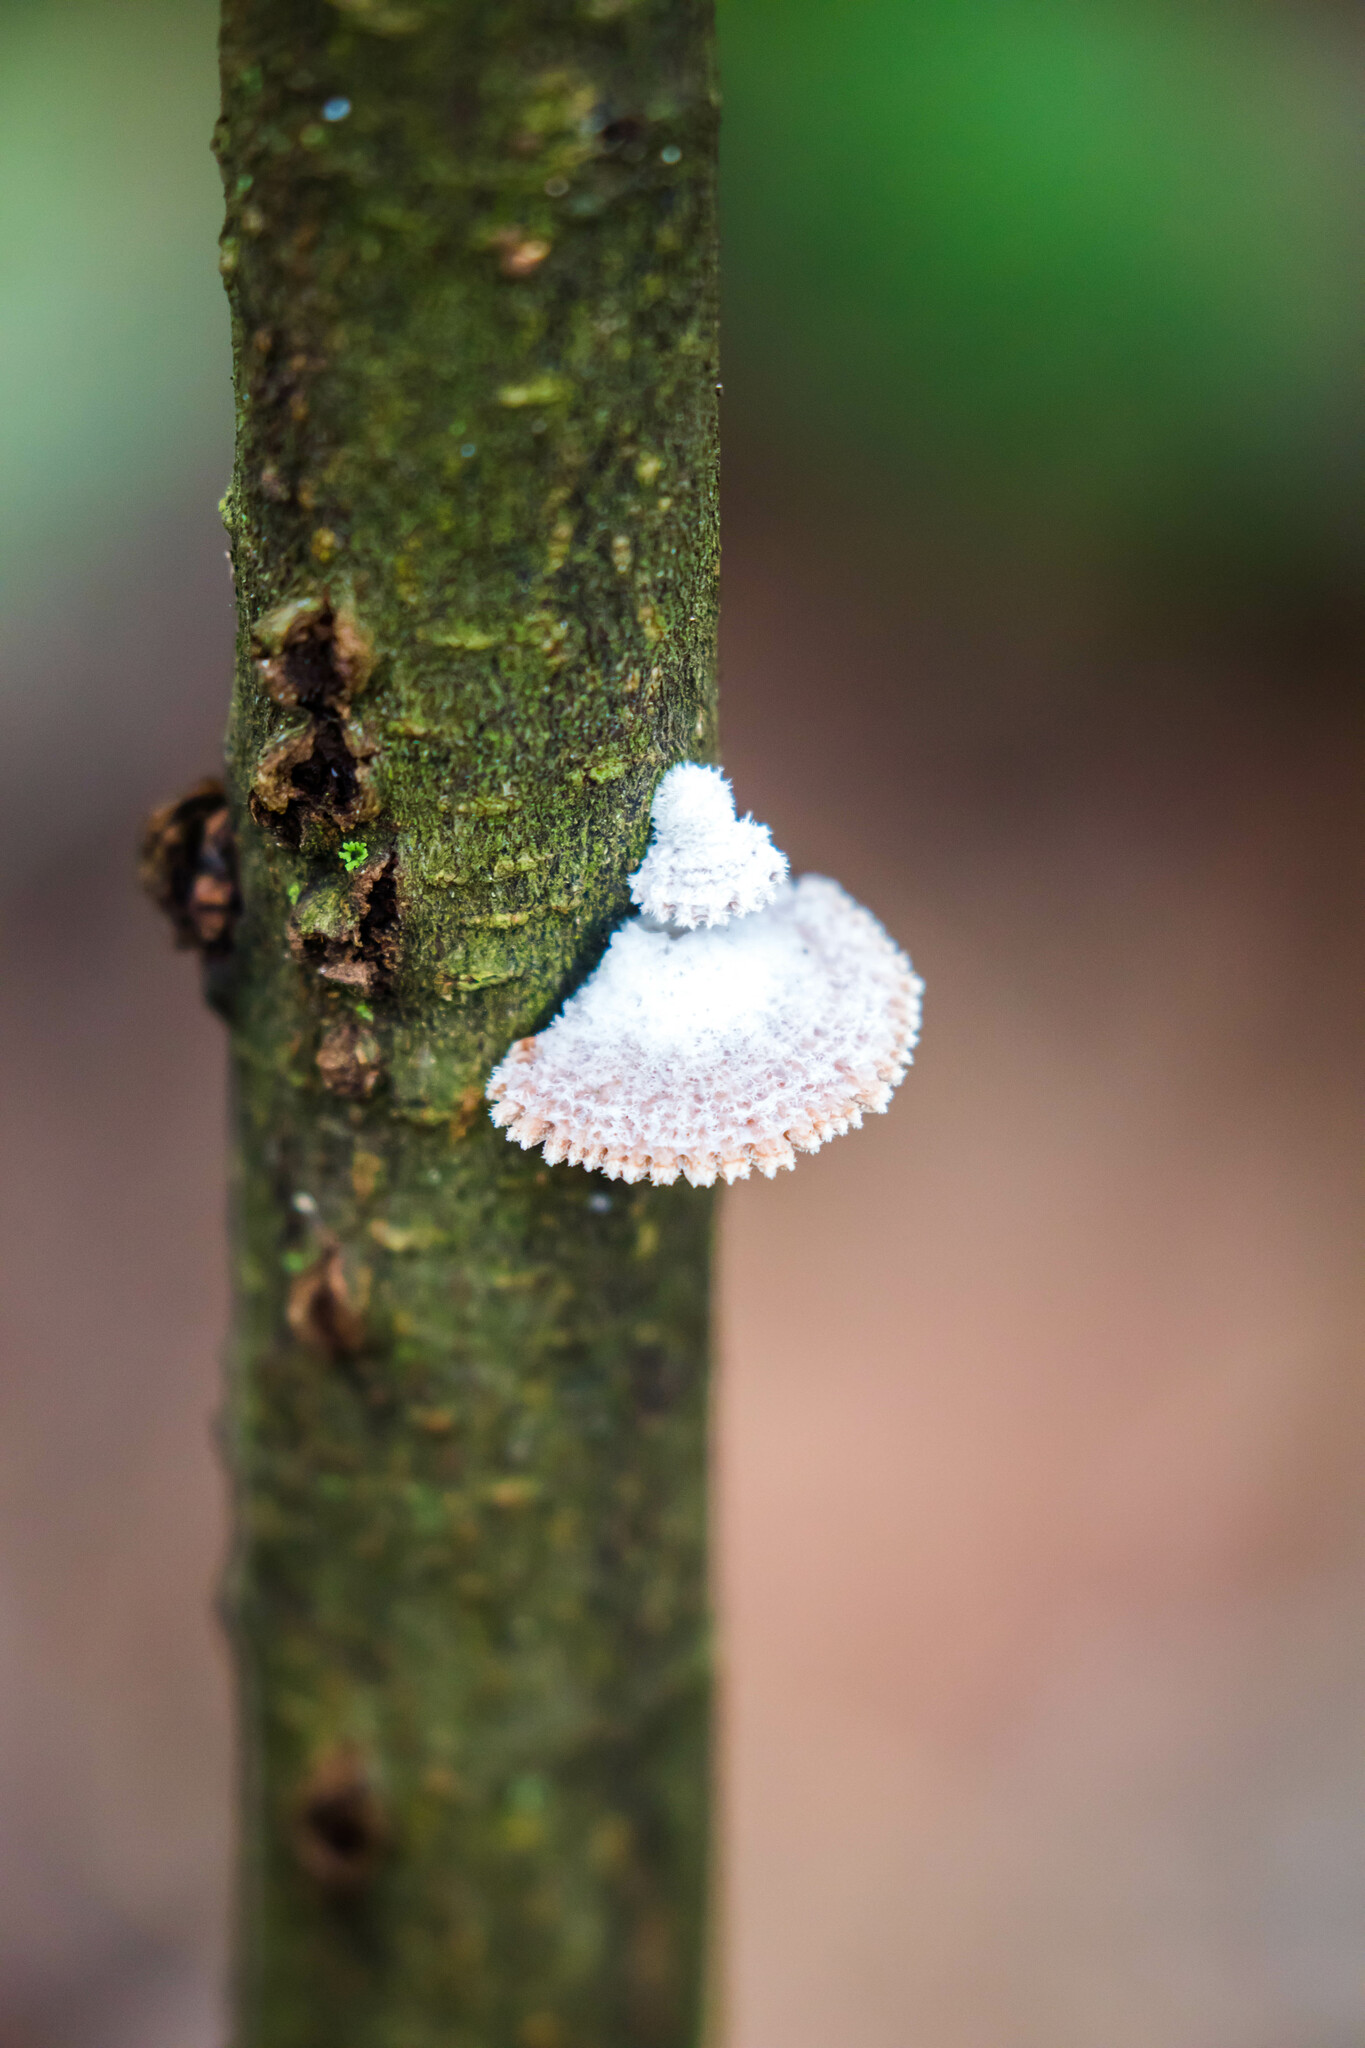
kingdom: Fungi
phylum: Basidiomycota
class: Agaricomycetes
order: Agaricales
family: Schizophyllaceae
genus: Schizophyllum
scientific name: Schizophyllum commune
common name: Common porecrust
